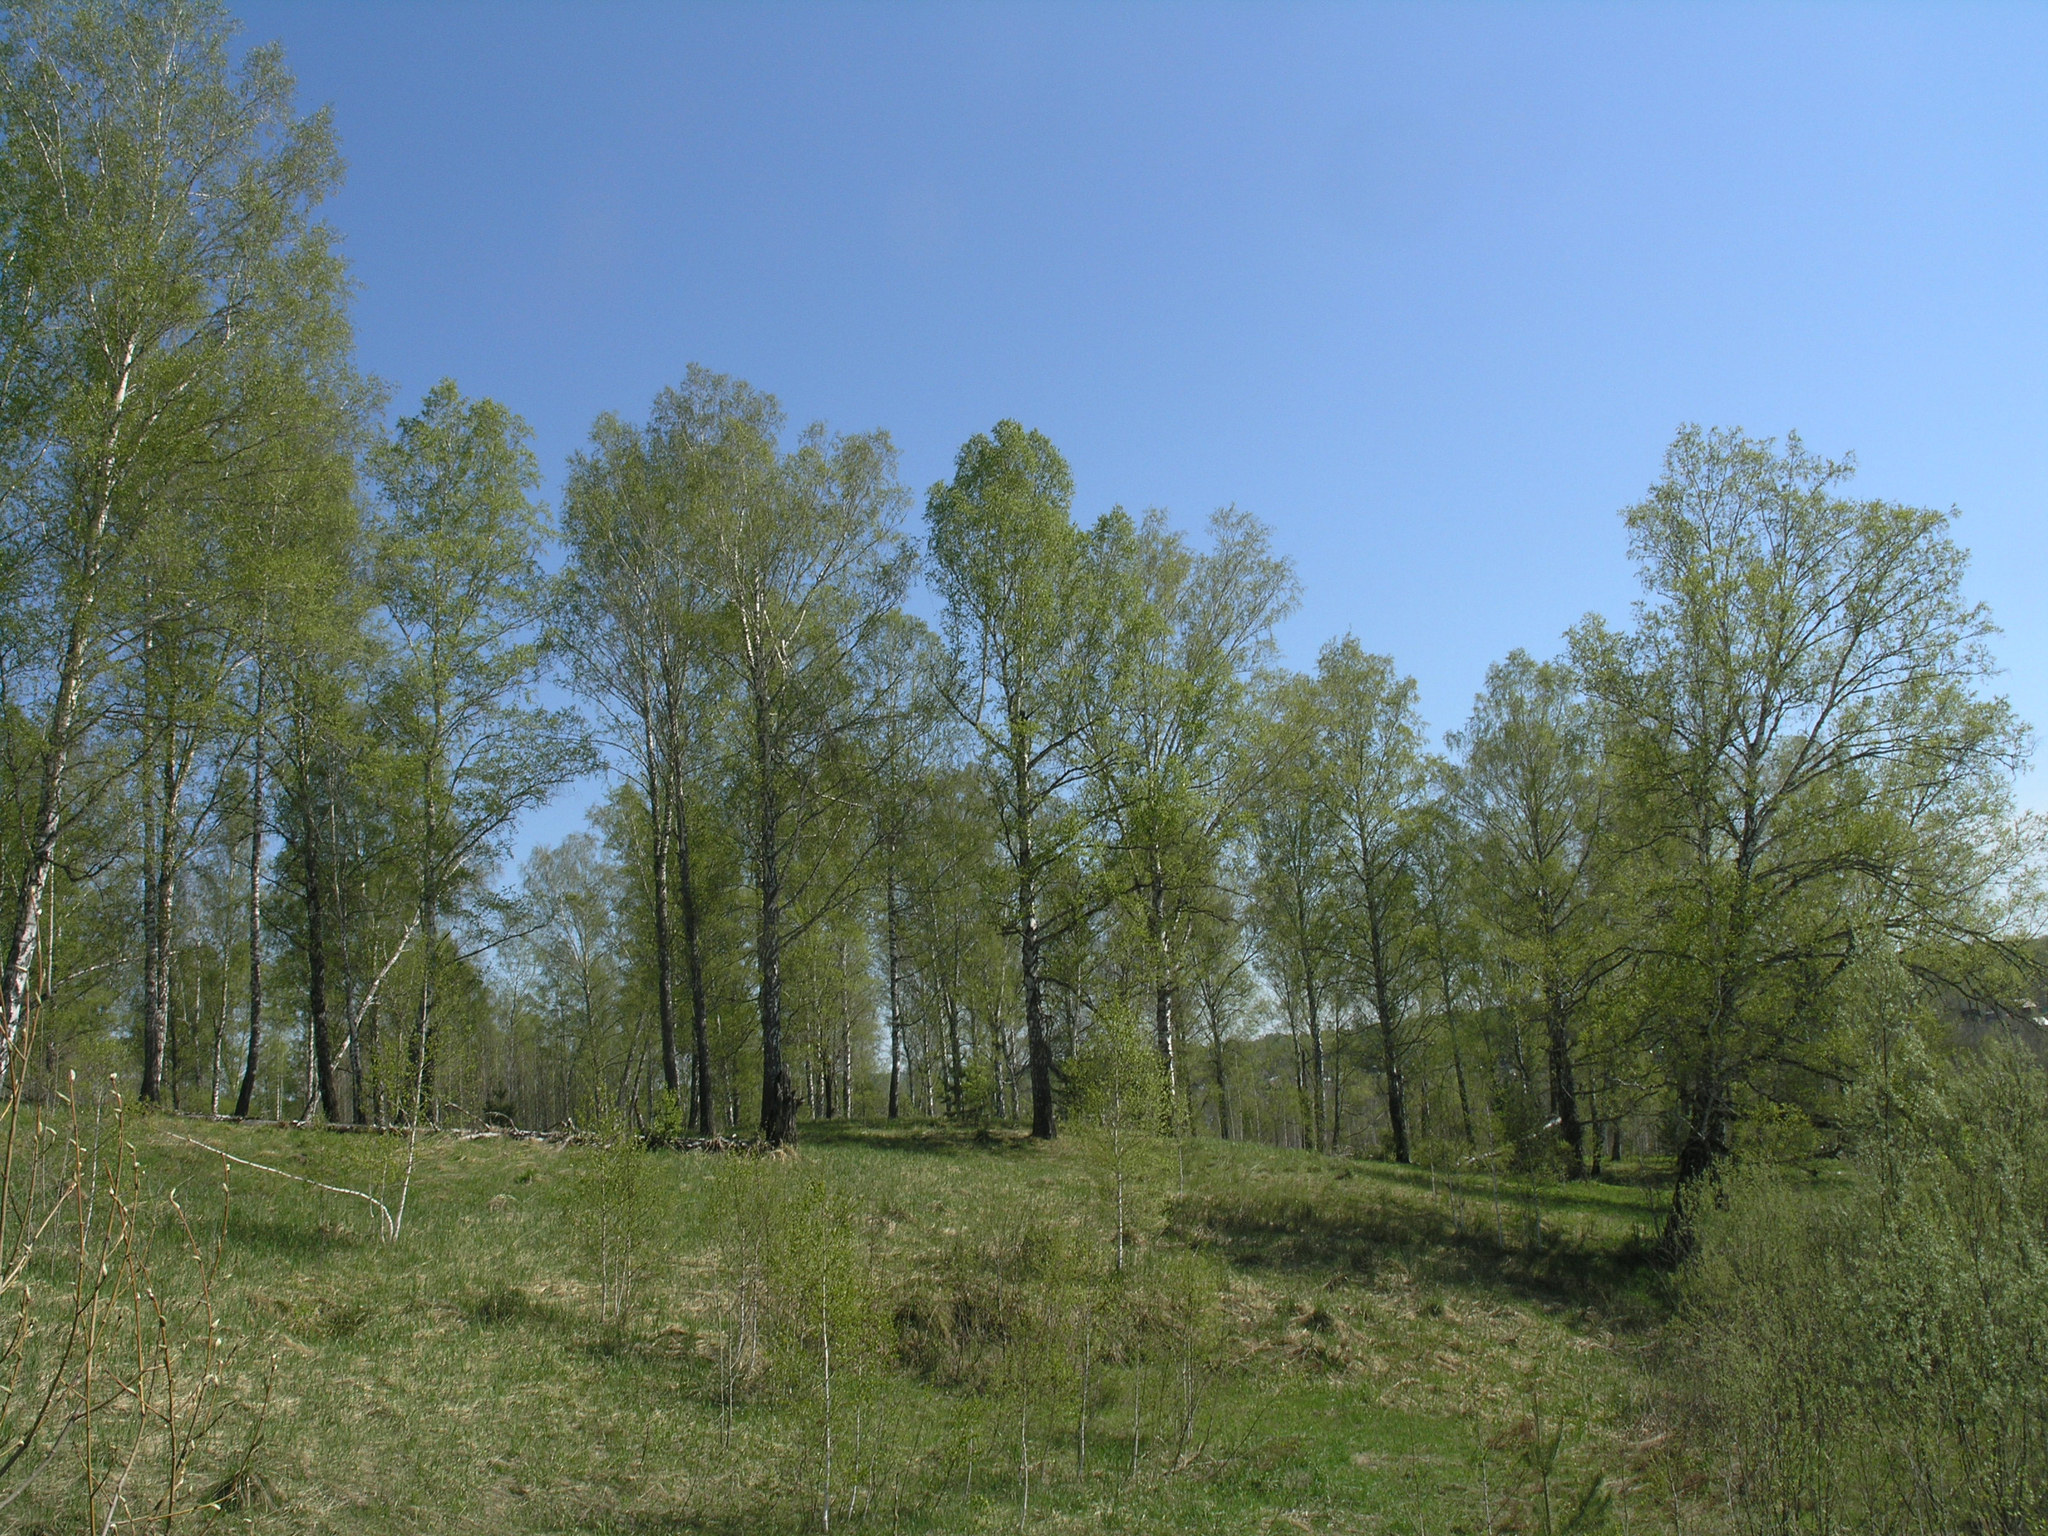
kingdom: Plantae
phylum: Tracheophyta
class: Magnoliopsida
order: Fagales
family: Betulaceae
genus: Betula
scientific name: Betula pendula
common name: Silver birch
